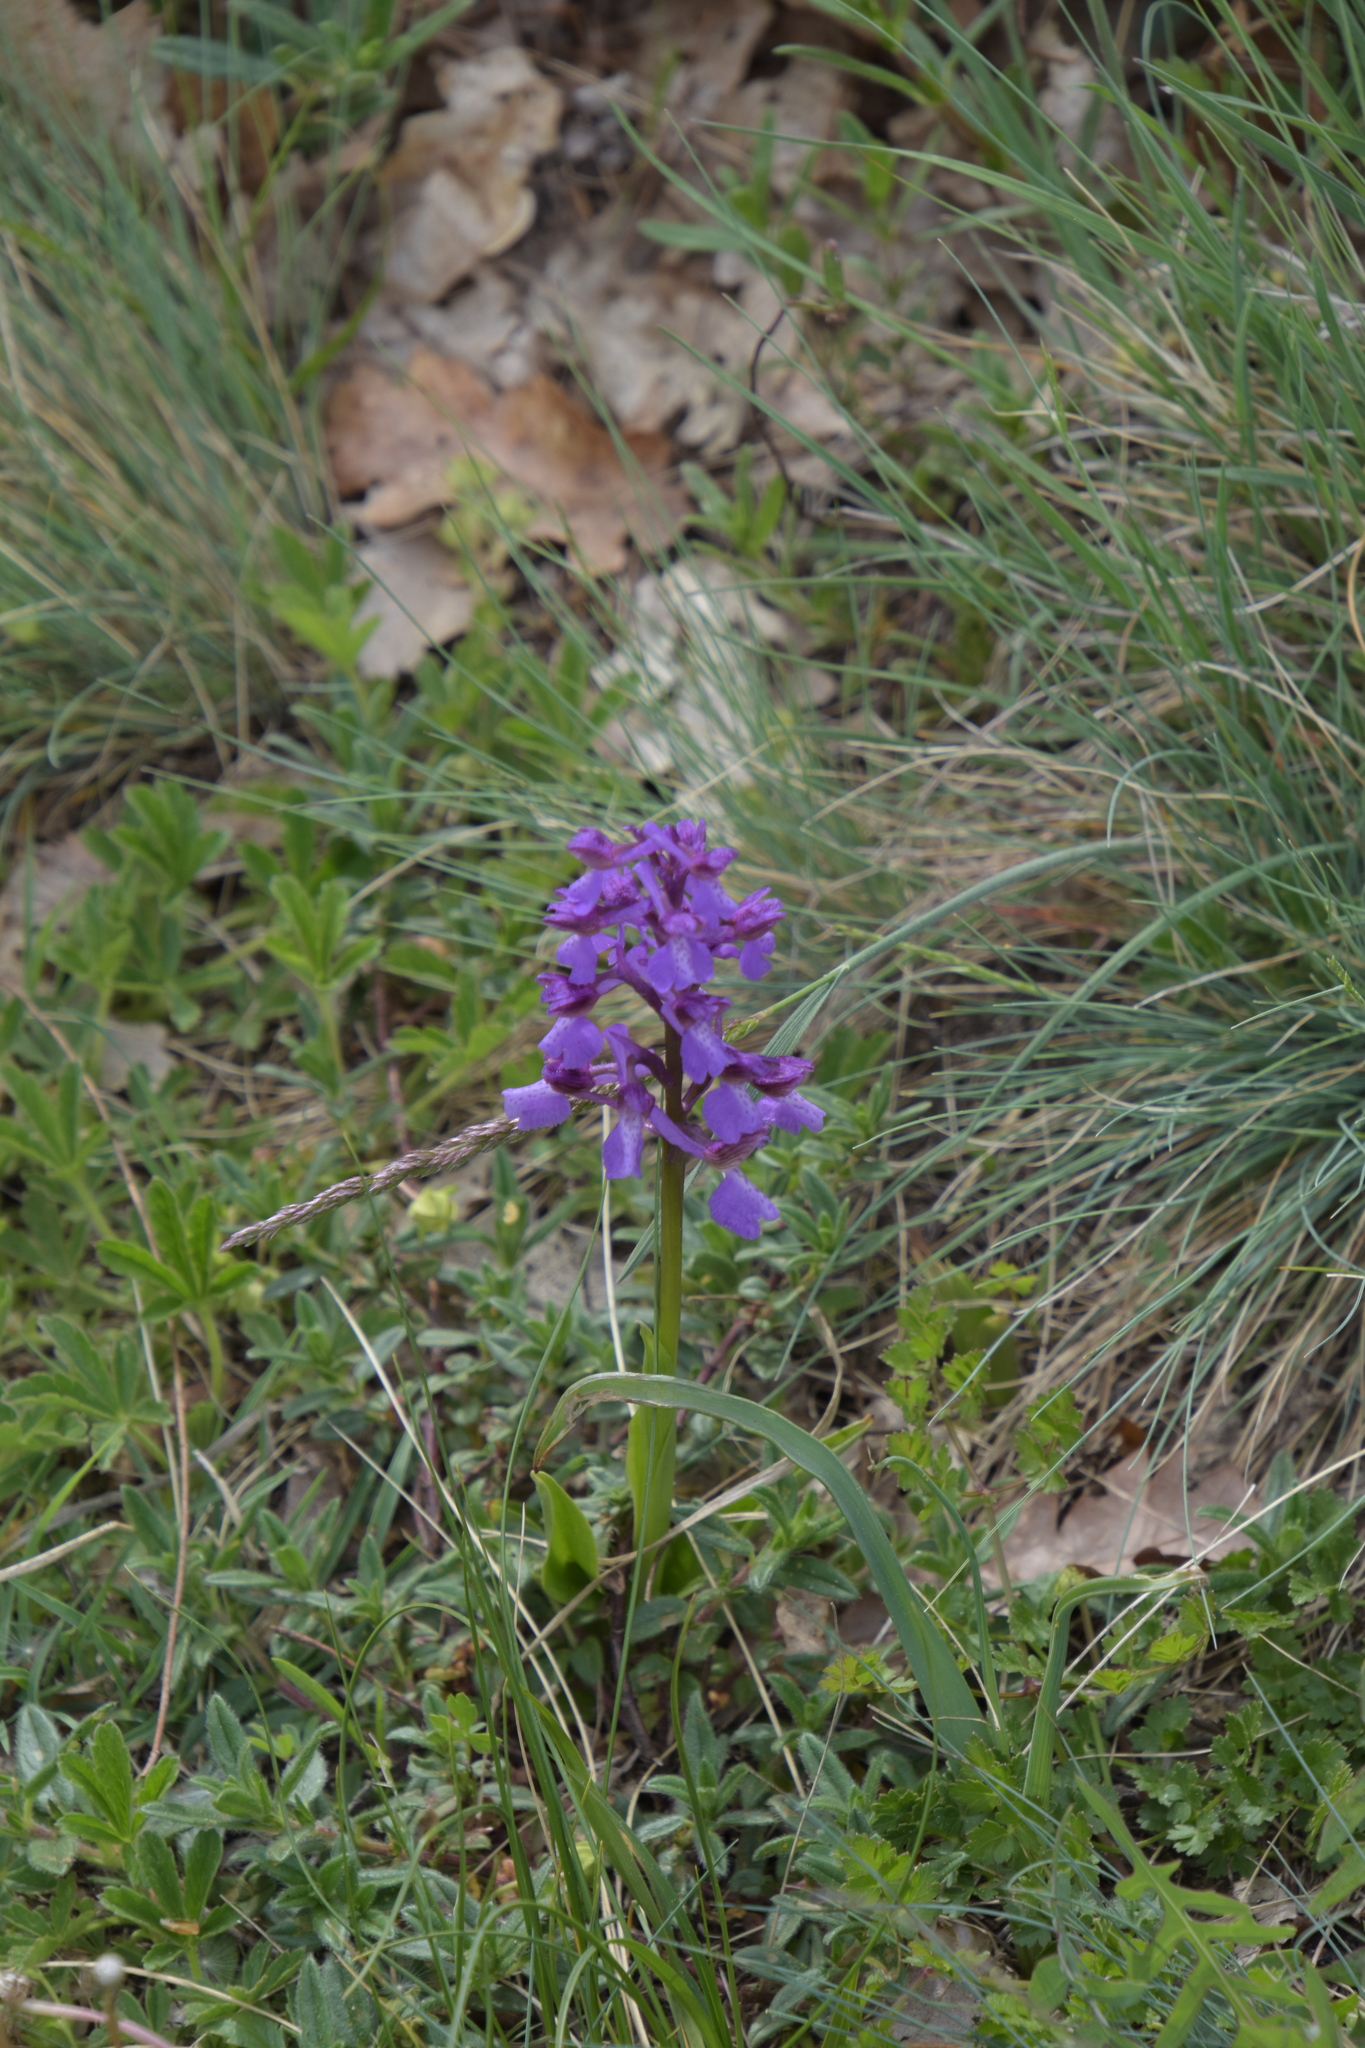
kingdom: Plantae
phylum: Tracheophyta
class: Liliopsida
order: Asparagales
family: Orchidaceae
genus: Anacamptis
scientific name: Anacamptis morio
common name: Green-winged orchid
